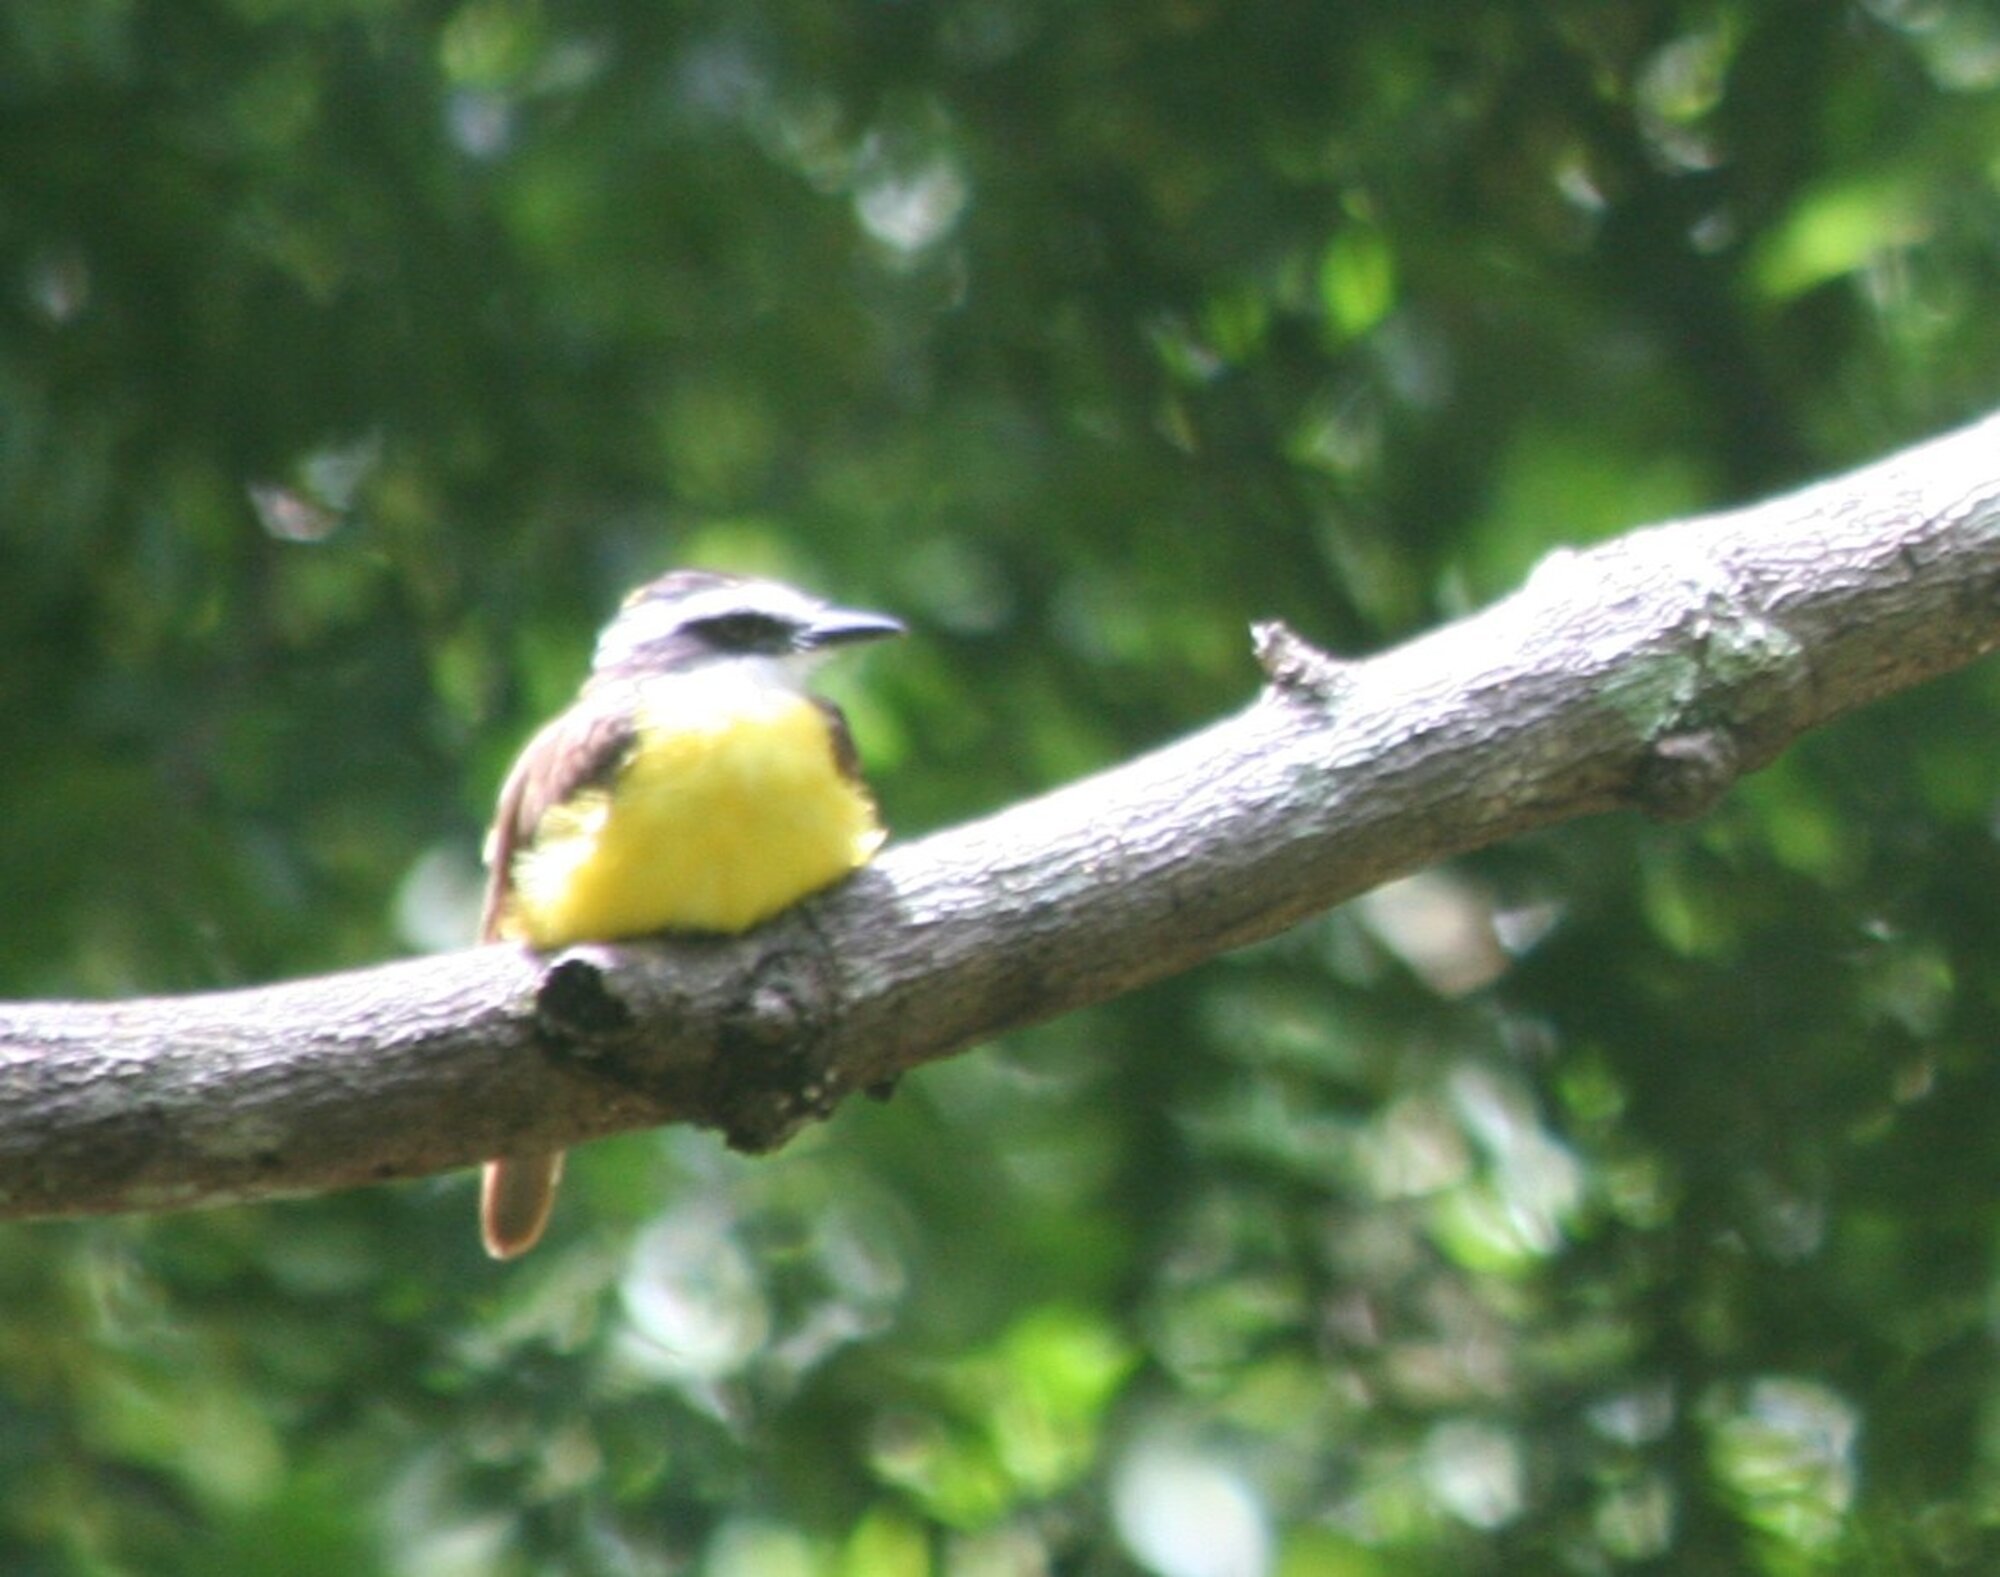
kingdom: Animalia
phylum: Chordata
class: Aves
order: Passeriformes
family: Tyrannidae
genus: Pitangus
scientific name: Pitangus sulphuratus
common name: Great kiskadee
